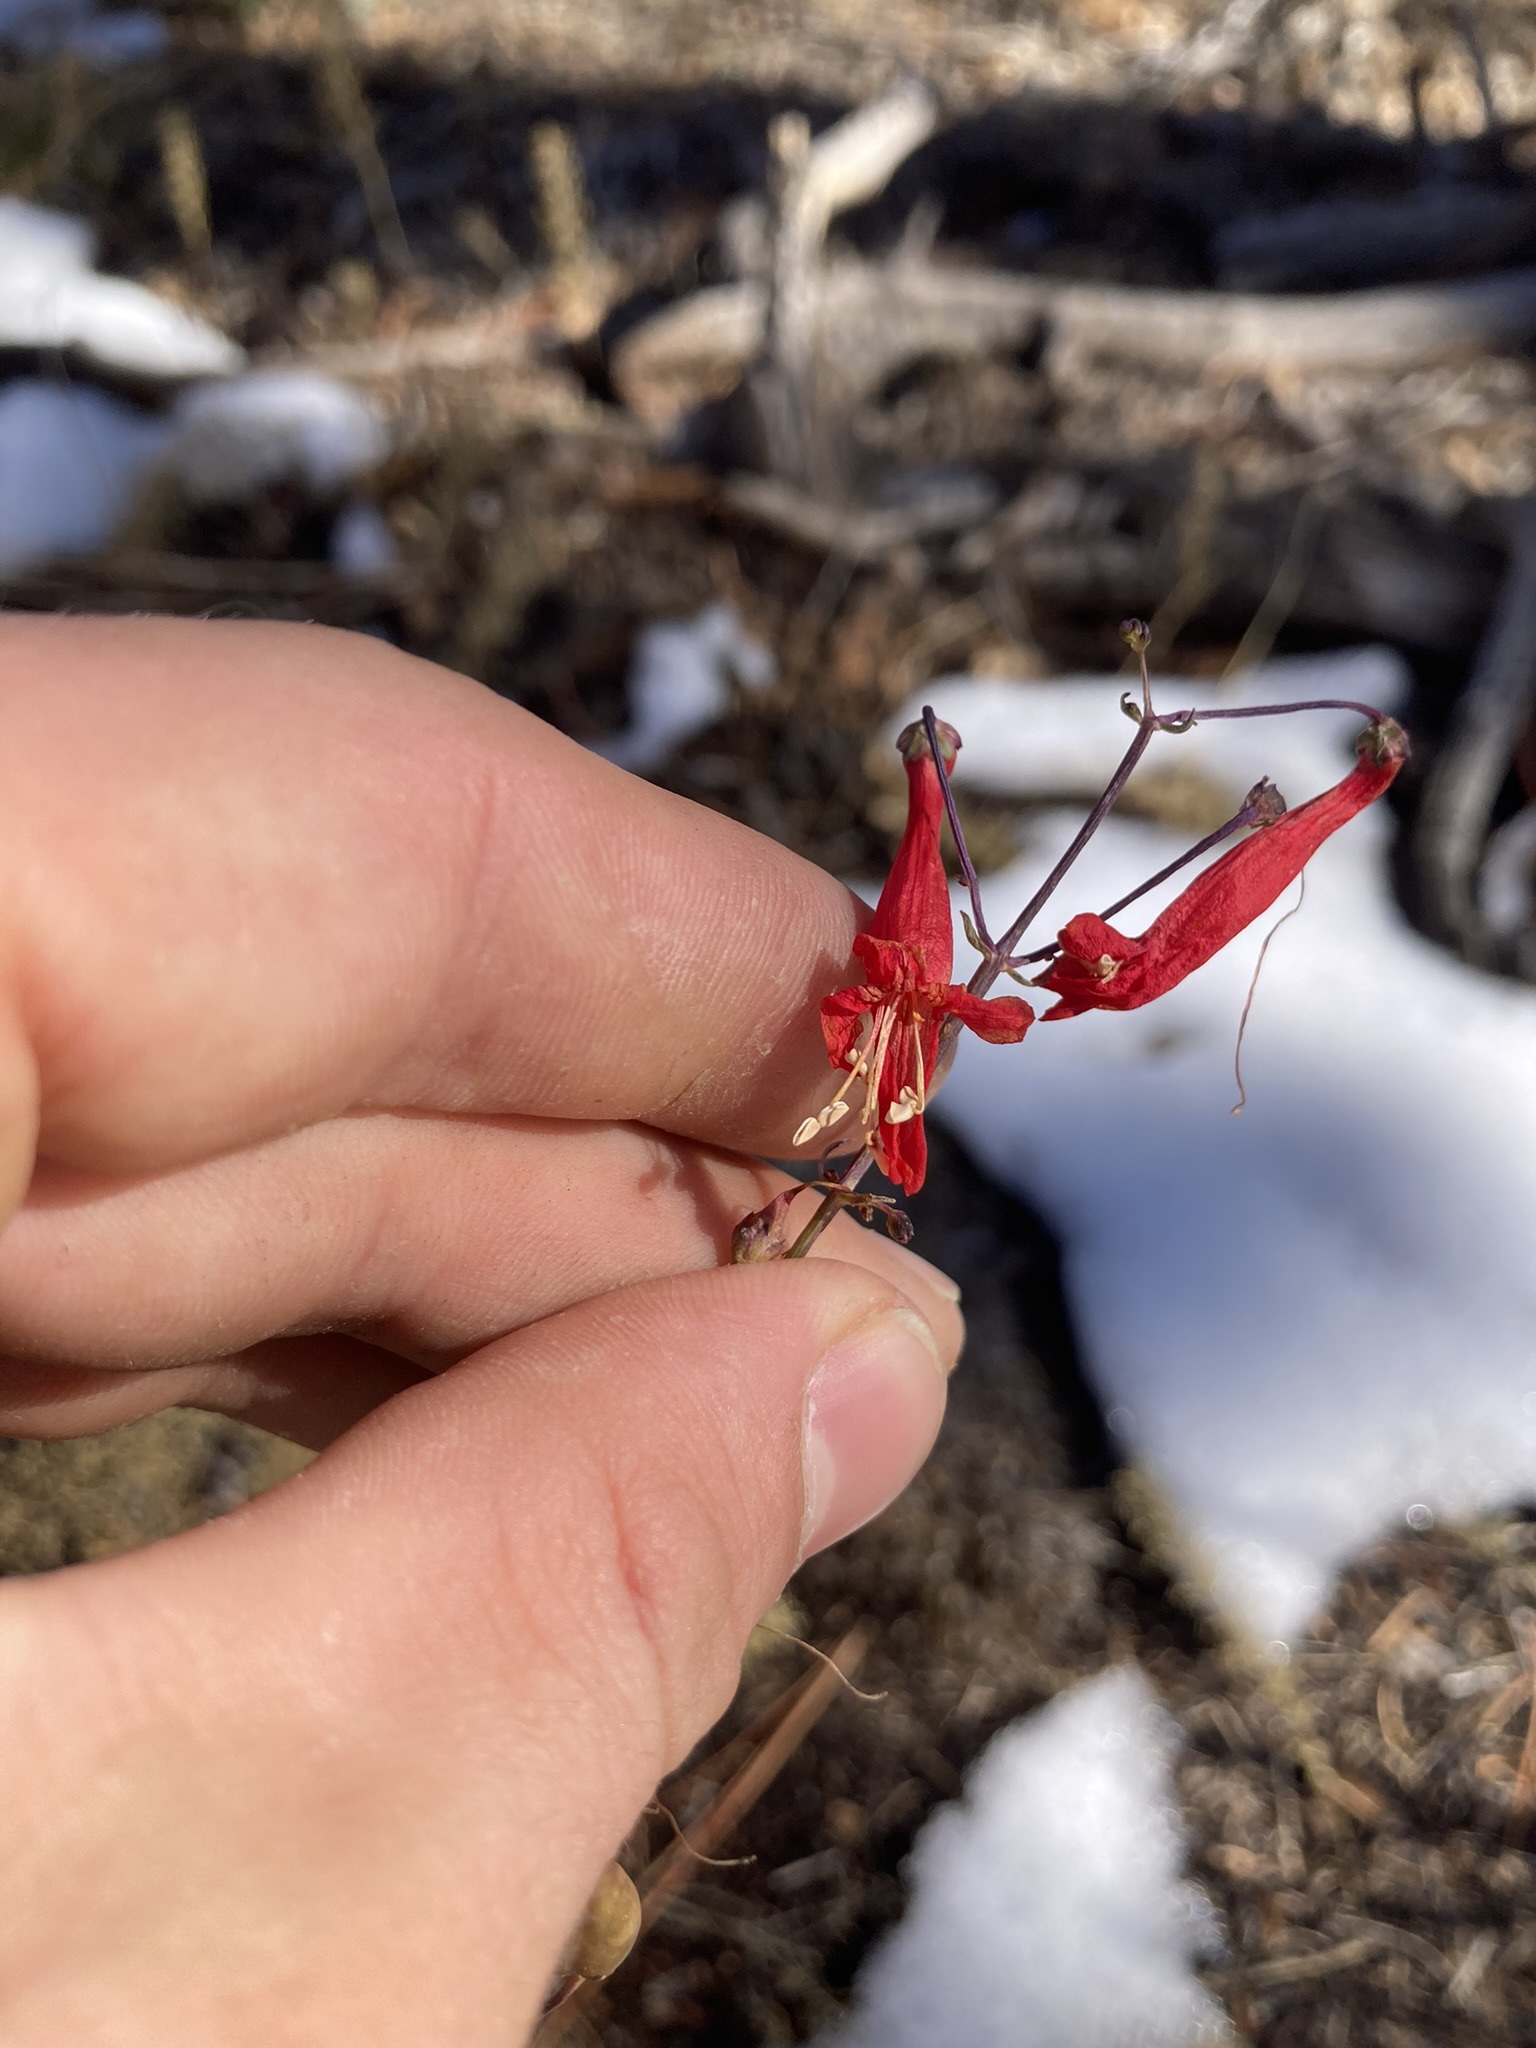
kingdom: Plantae
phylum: Tracheophyta
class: Magnoliopsida
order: Lamiales
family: Plantaginaceae
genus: Penstemon
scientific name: Penstemon barbatus
